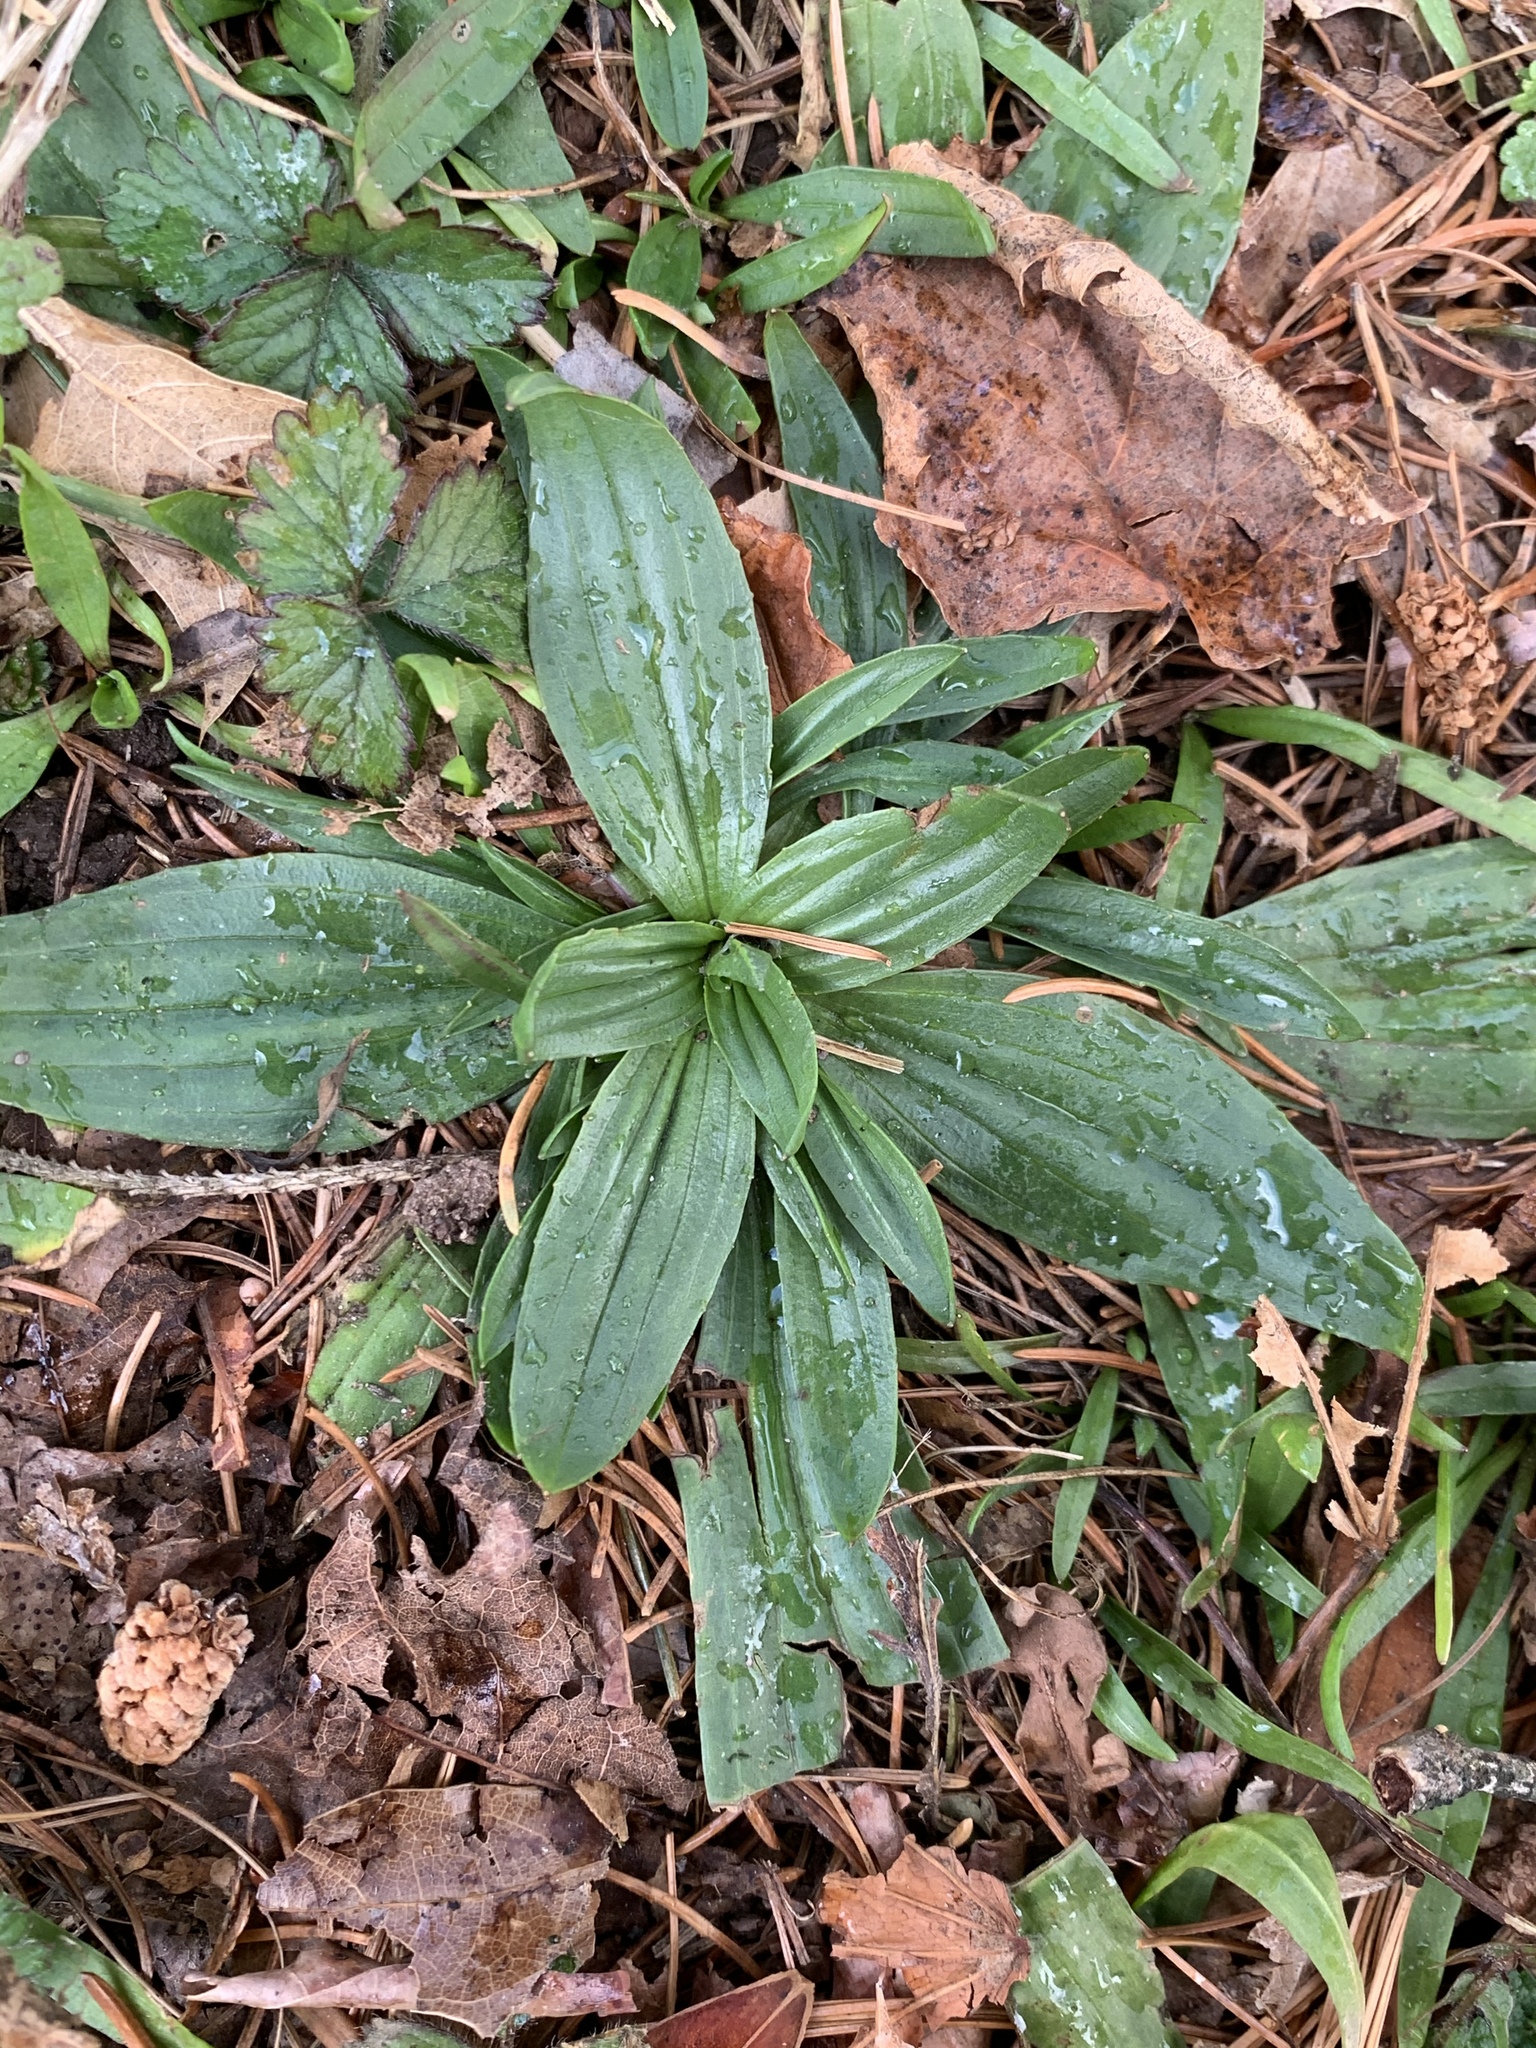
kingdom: Plantae
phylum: Tracheophyta
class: Magnoliopsida
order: Lamiales
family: Plantaginaceae
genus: Plantago
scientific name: Plantago lanceolata
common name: Ribwort plantain
